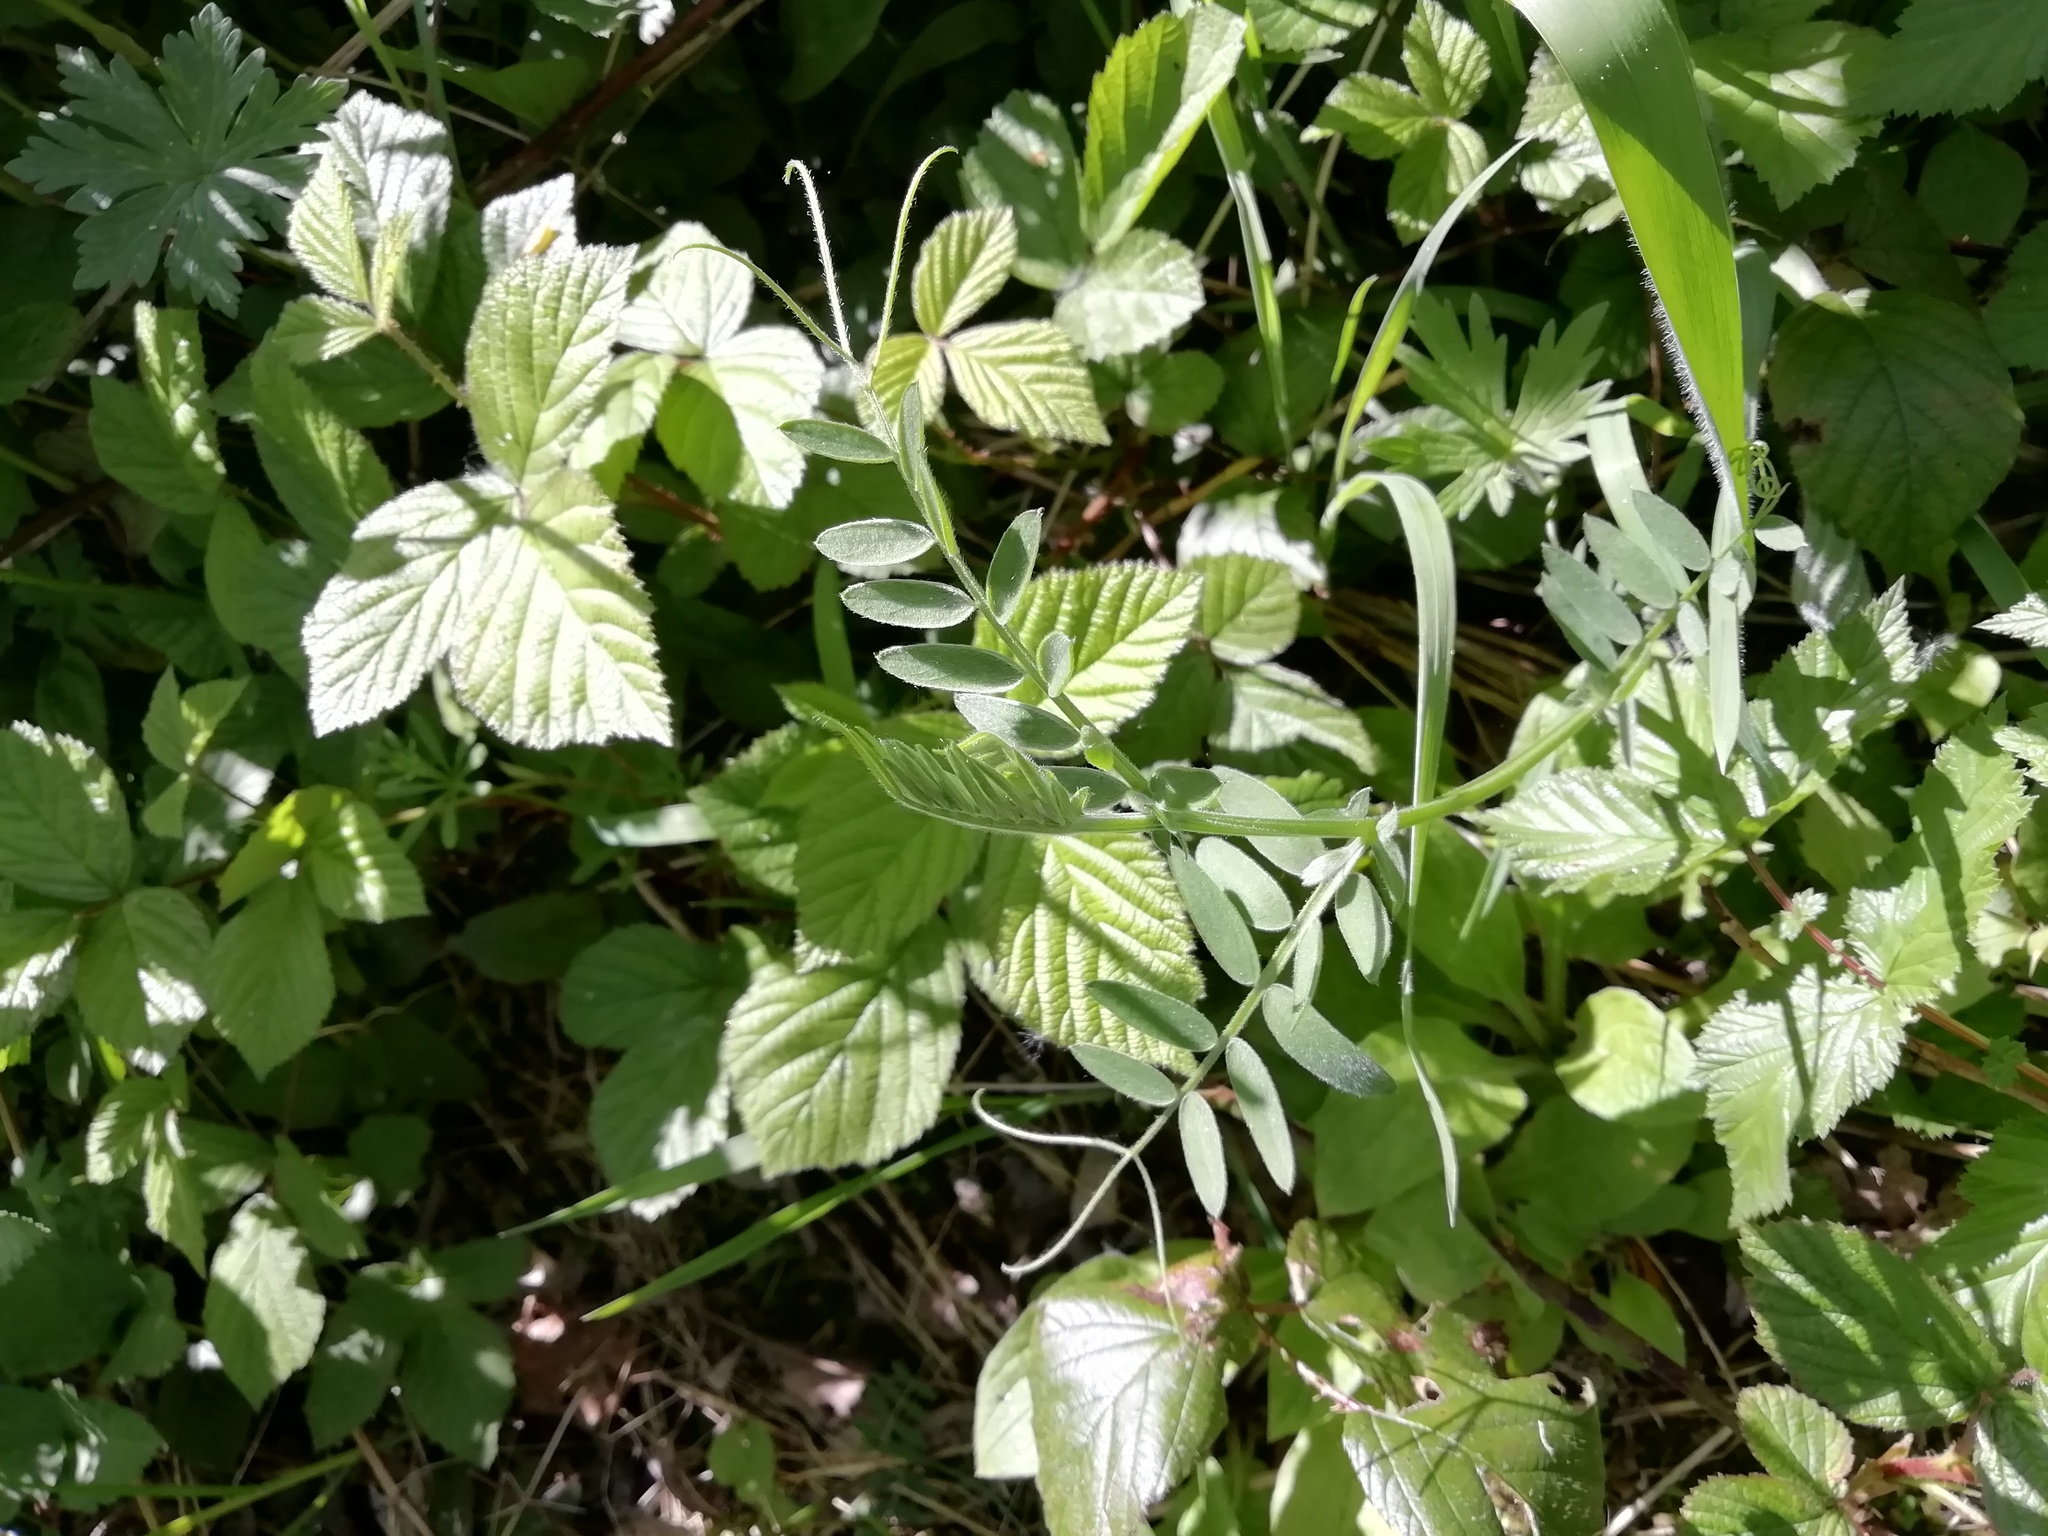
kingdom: Plantae
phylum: Tracheophyta
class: Magnoliopsida
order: Fabales
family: Fabaceae
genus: Vicia
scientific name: Vicia cracca
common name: Bird vetch
